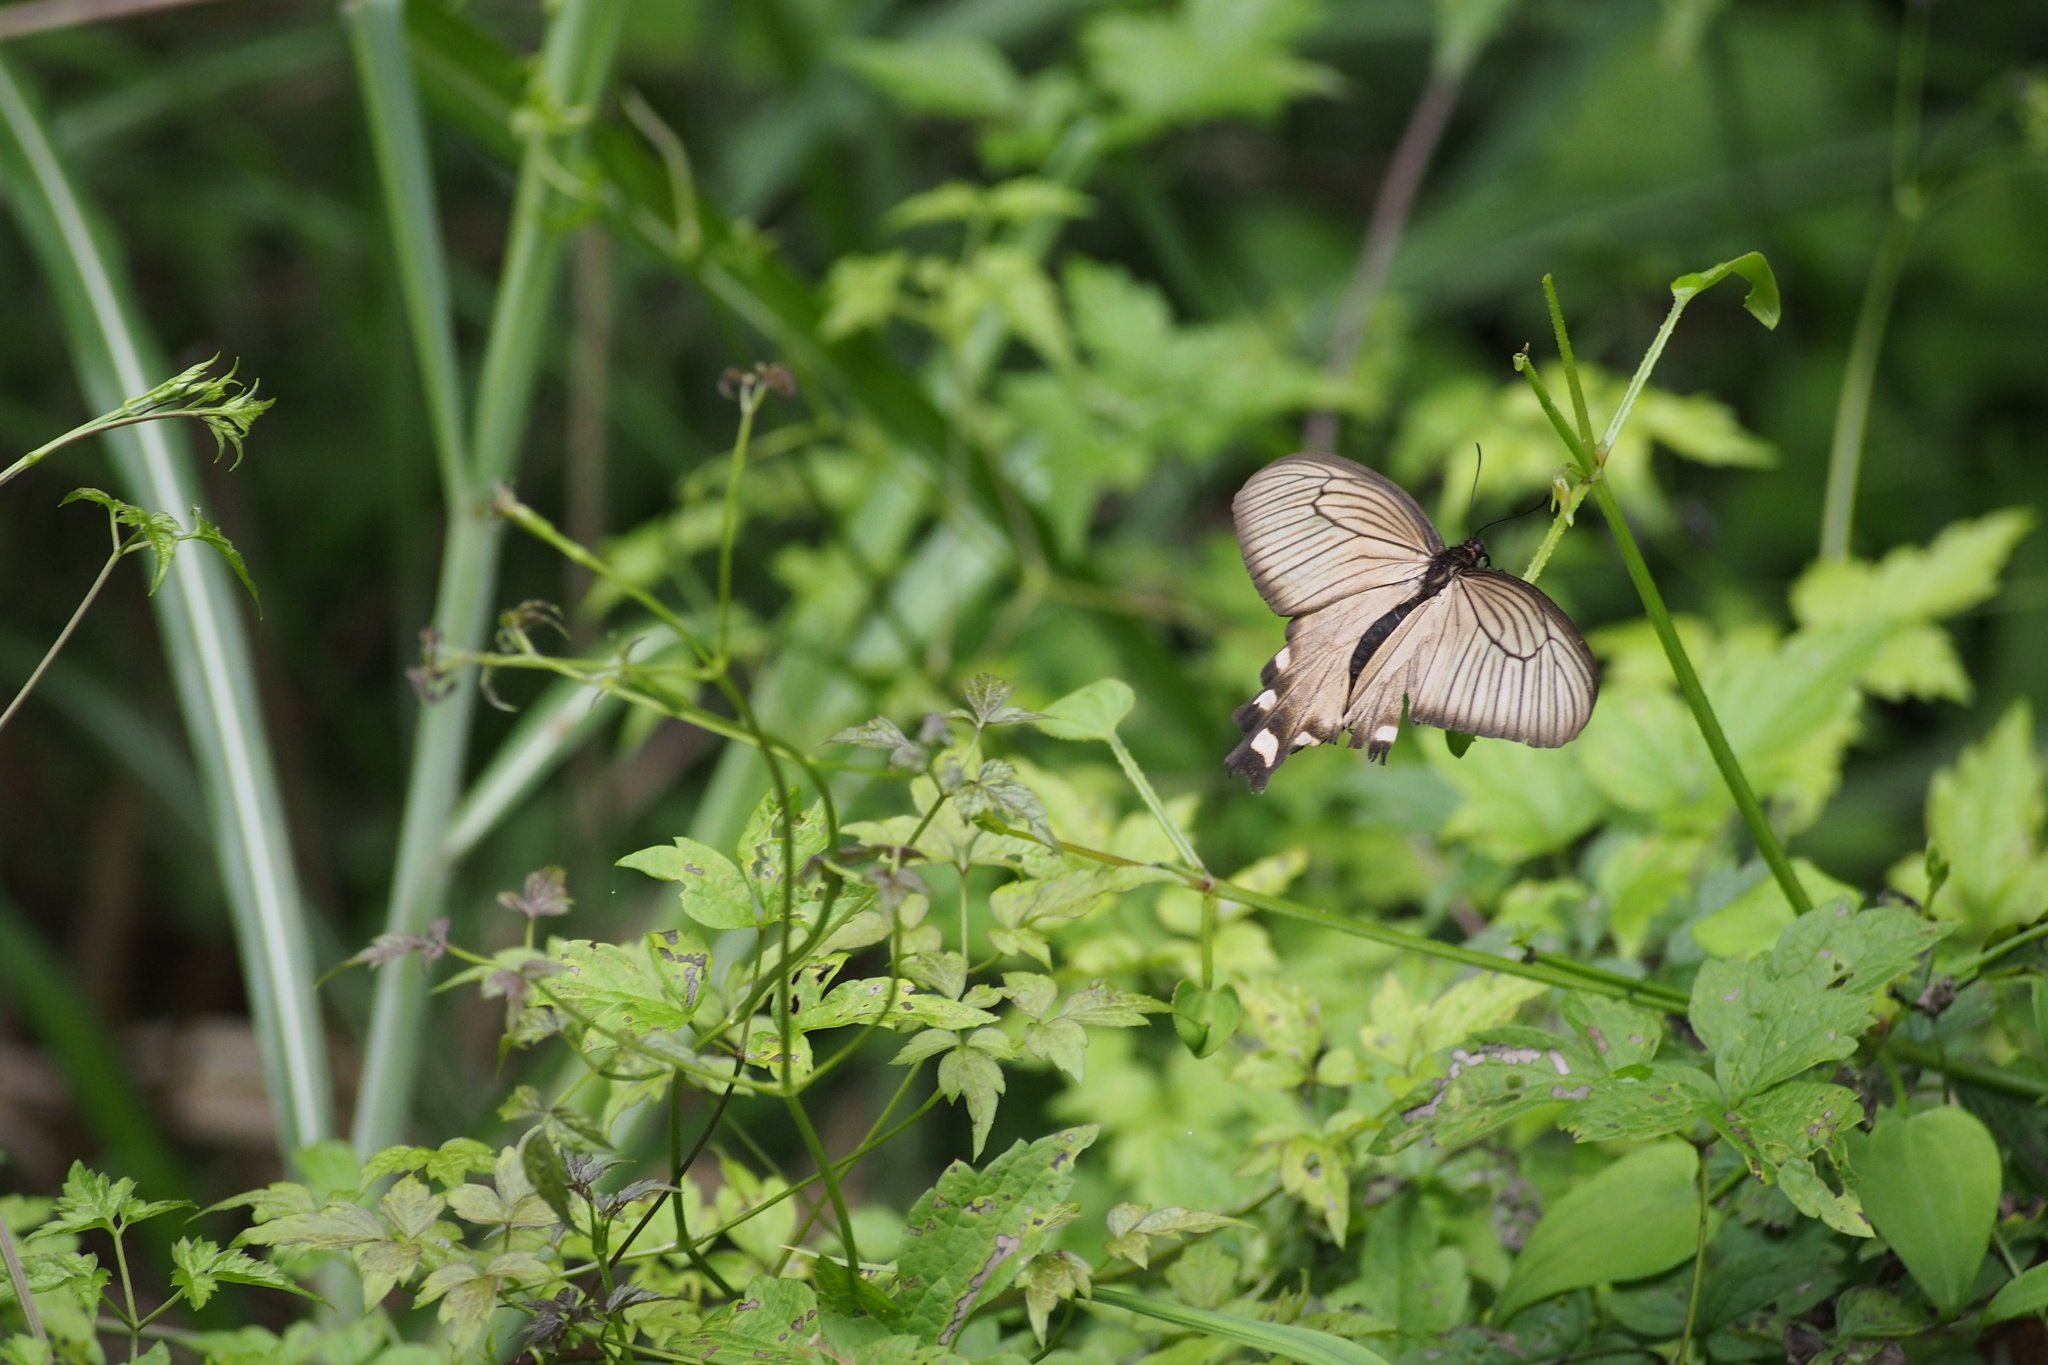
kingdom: Animalia
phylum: Arthropoda
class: Insecta
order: Lepidoptera
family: Papilionidae
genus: Byasa
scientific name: Byasa alcinous
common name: Chinese windmill
